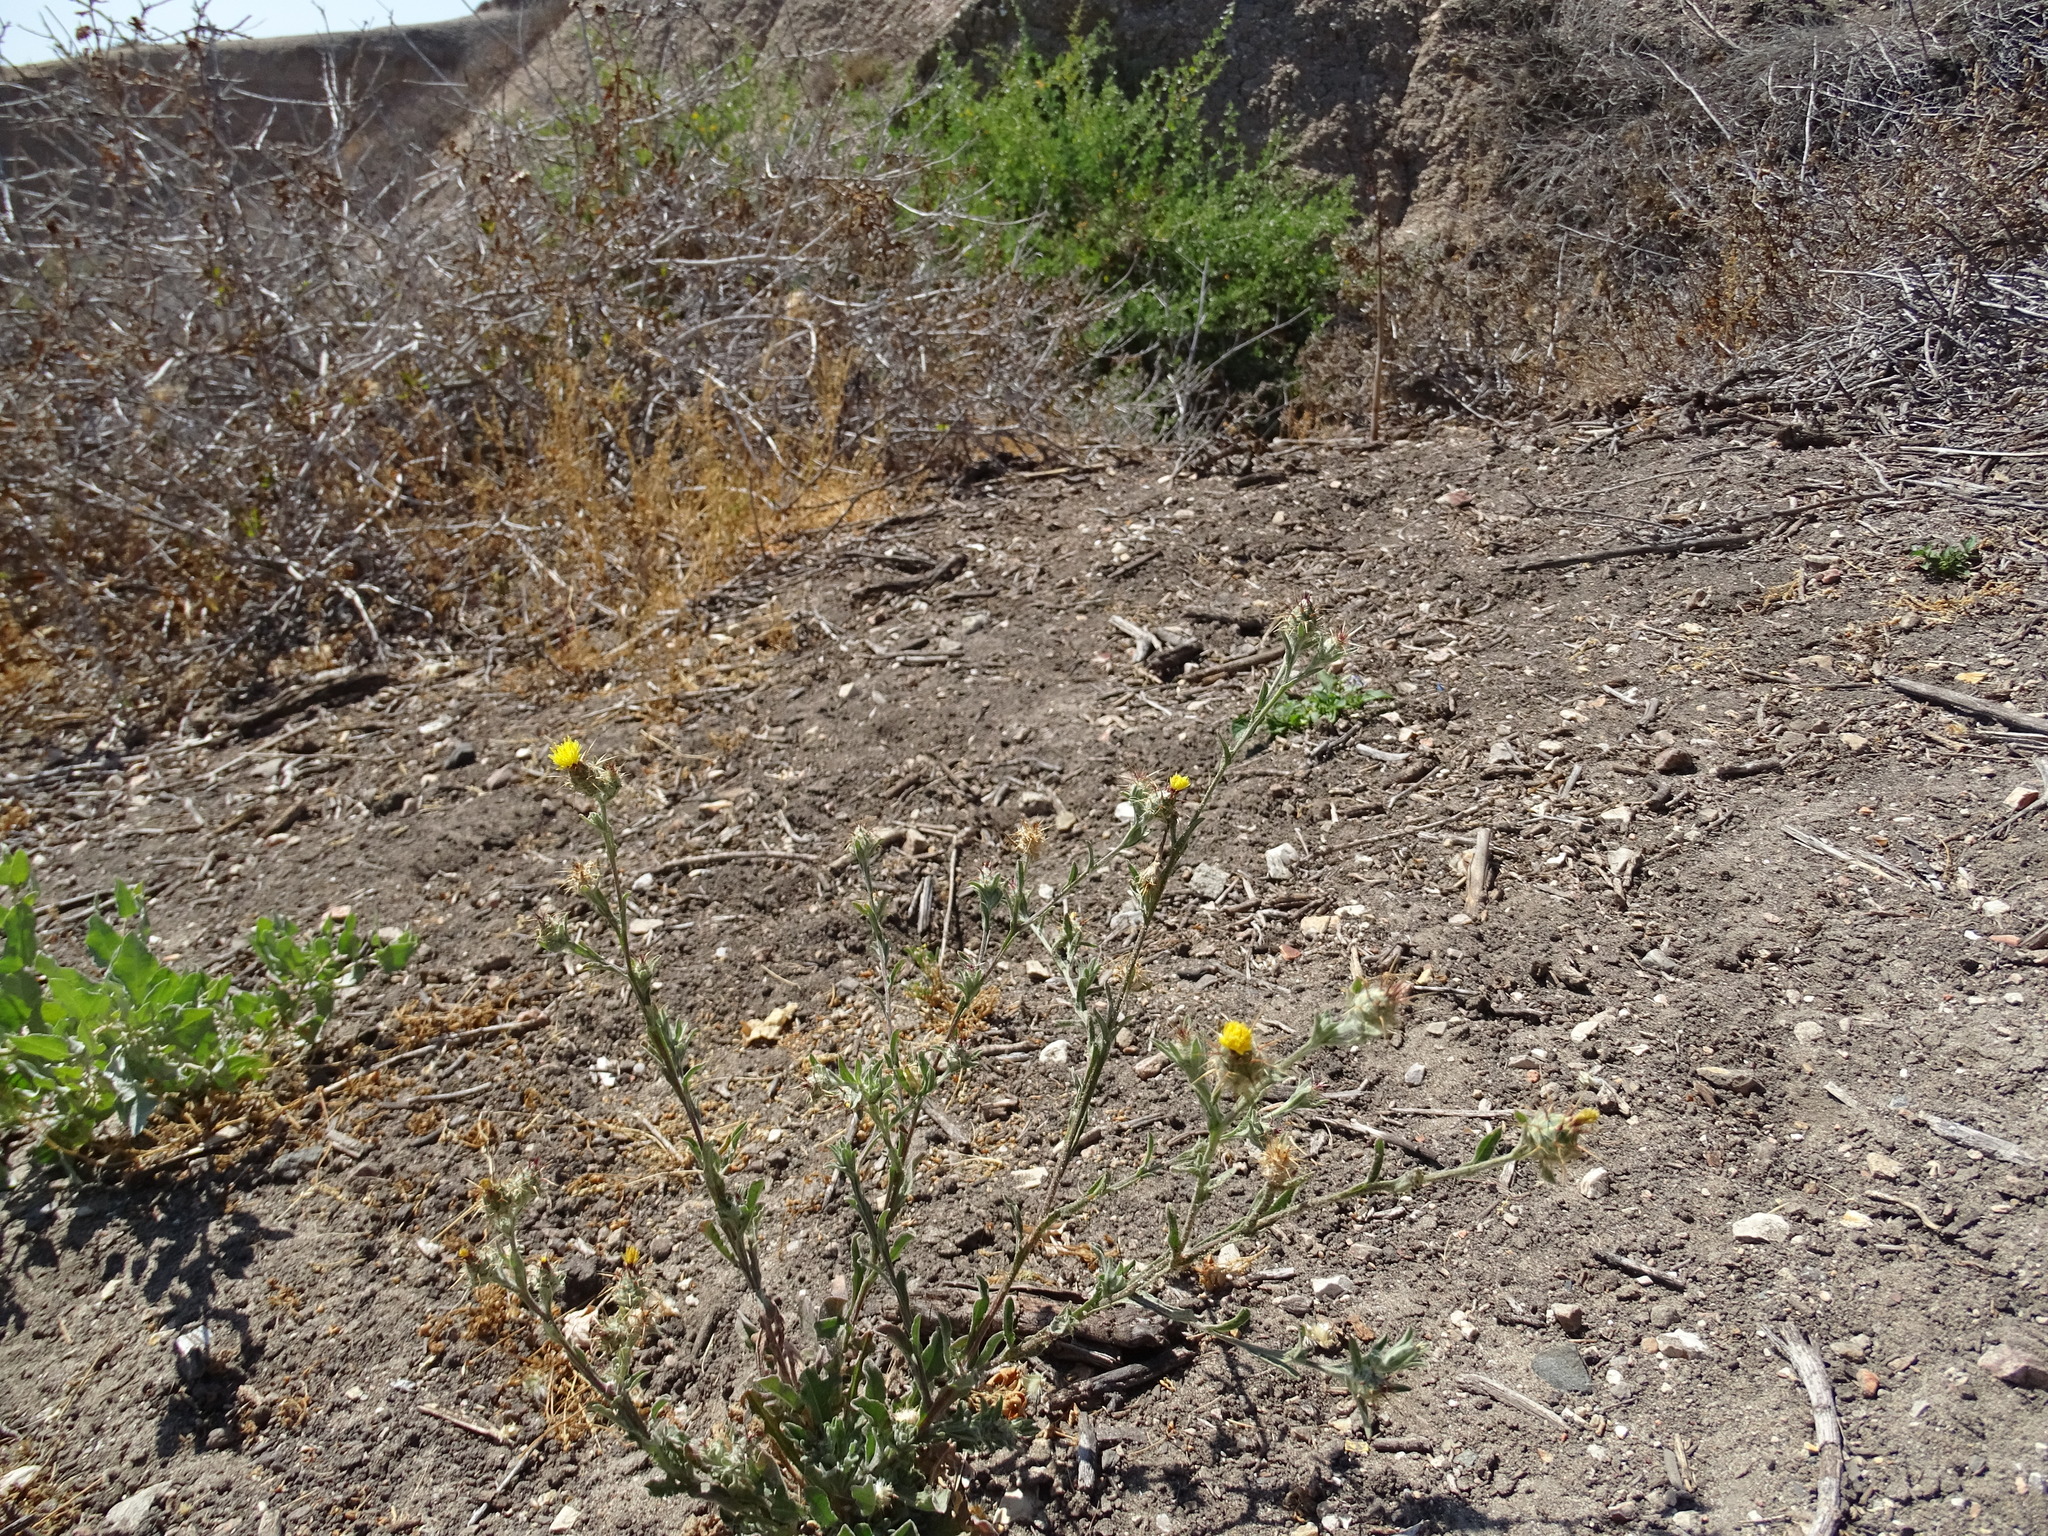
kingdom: Plantae
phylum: Tracheophyta
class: Magnoliopsida
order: Asterales
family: Asteraceae
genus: Centaurea
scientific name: Centaurea melitensis
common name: Maltese star-thistle
